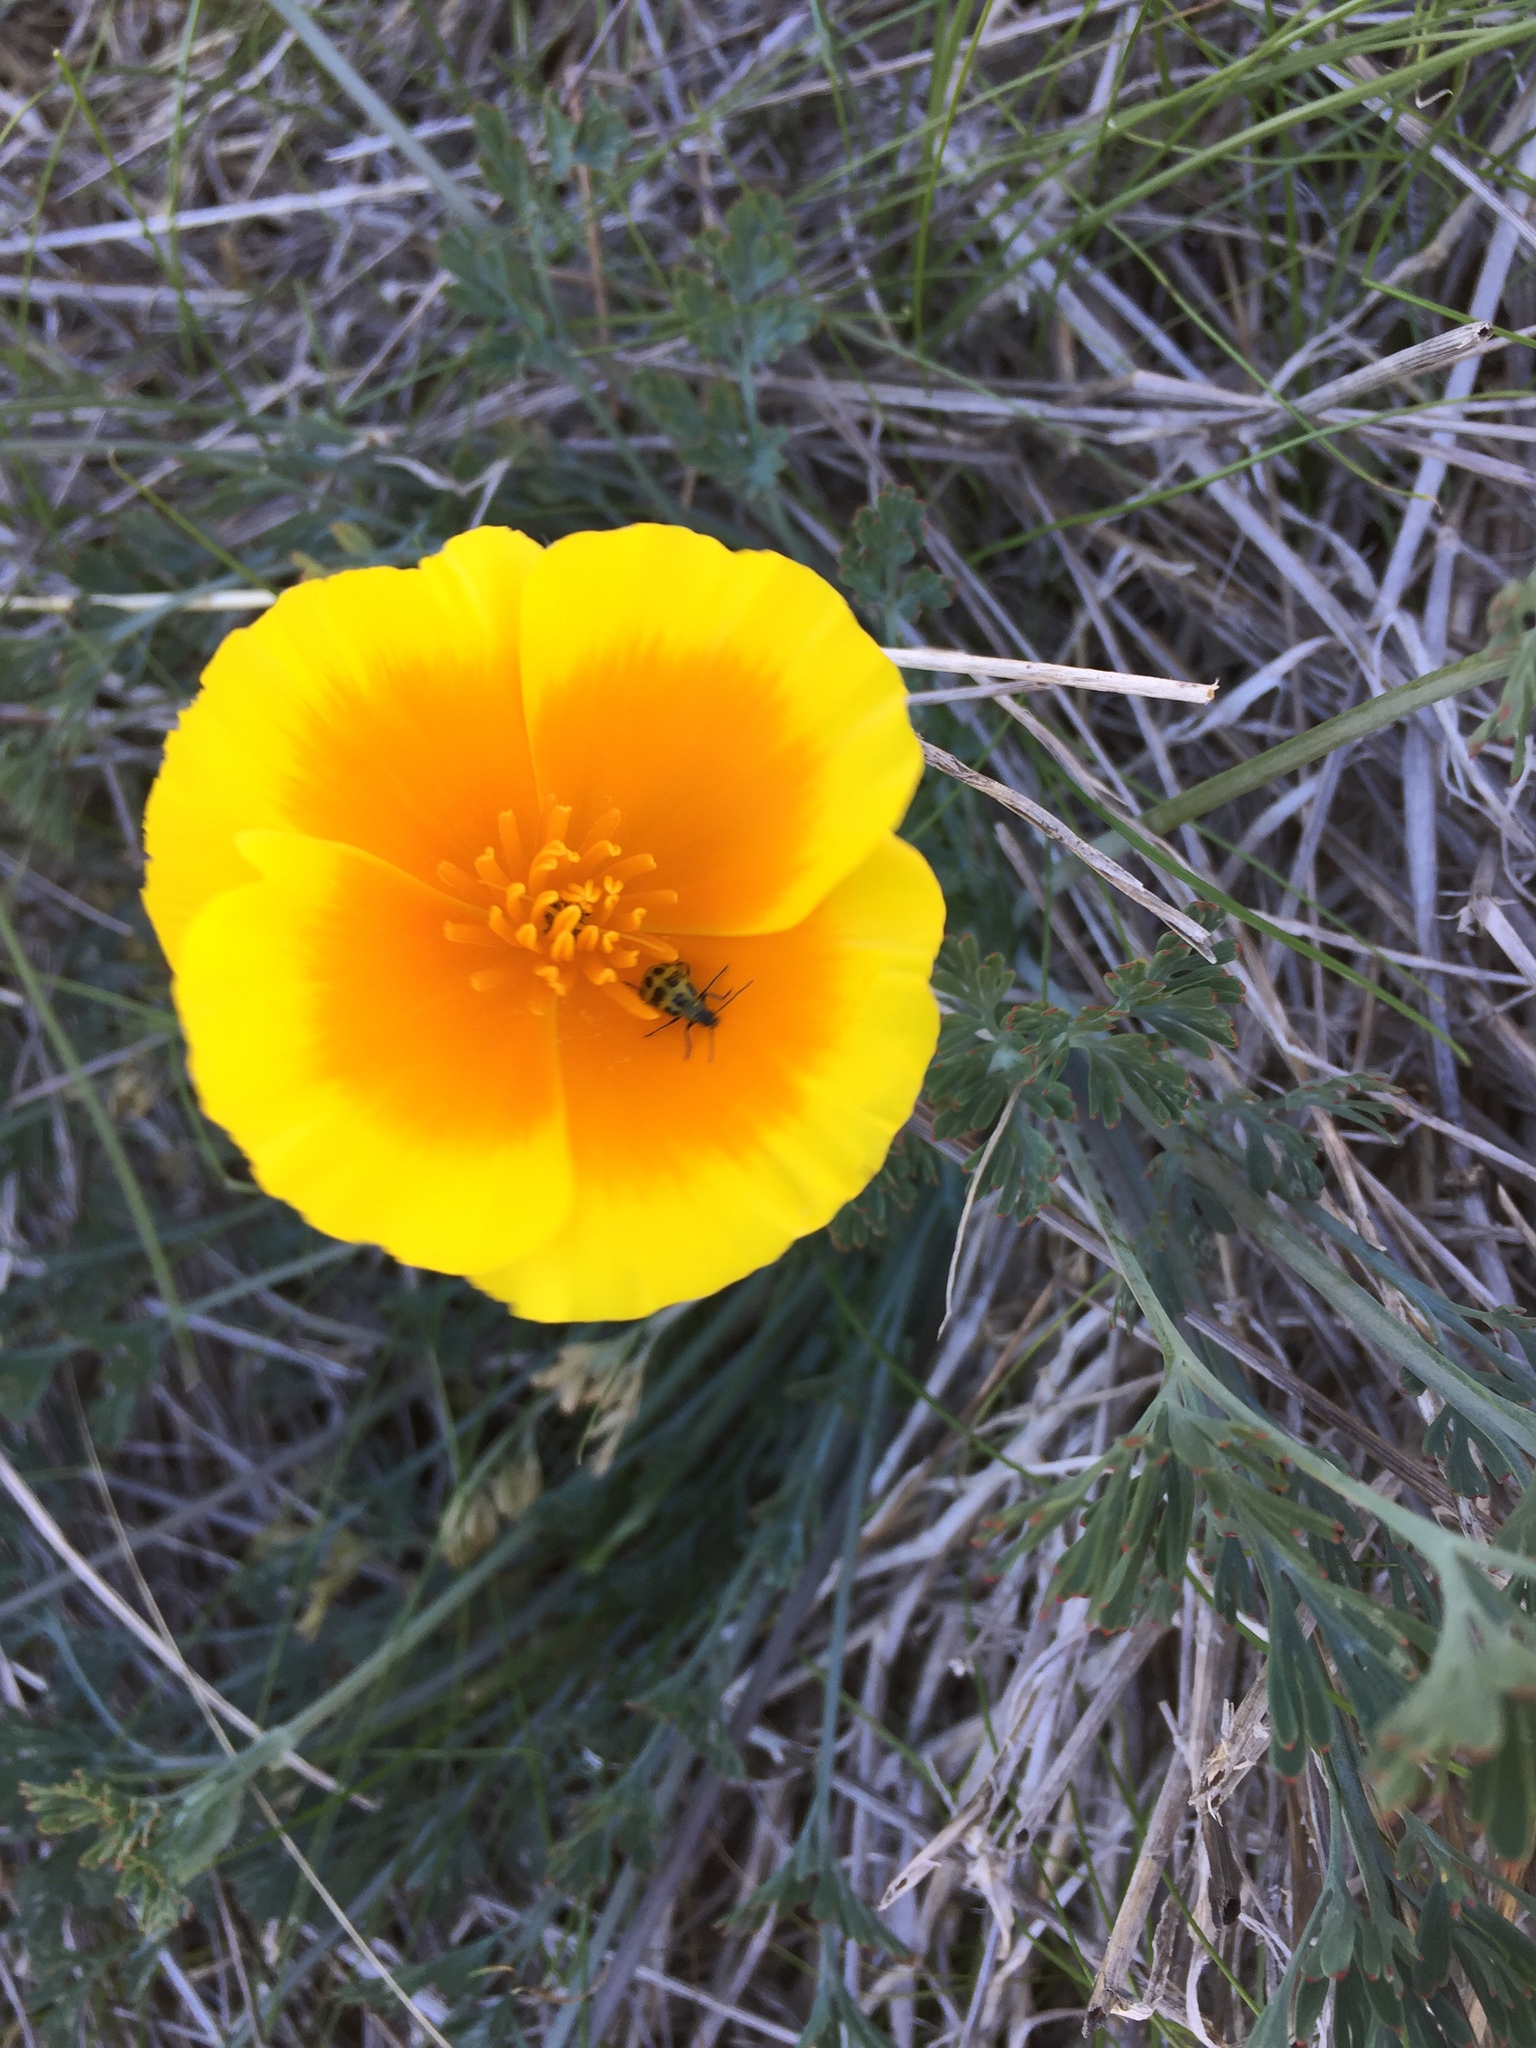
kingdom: Plantae
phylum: Tracheophyta
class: Magnoliopsida
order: Ranunculales
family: Papaveraceae
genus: Eschscholzia
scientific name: Eschscholzia californica
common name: California poppy
